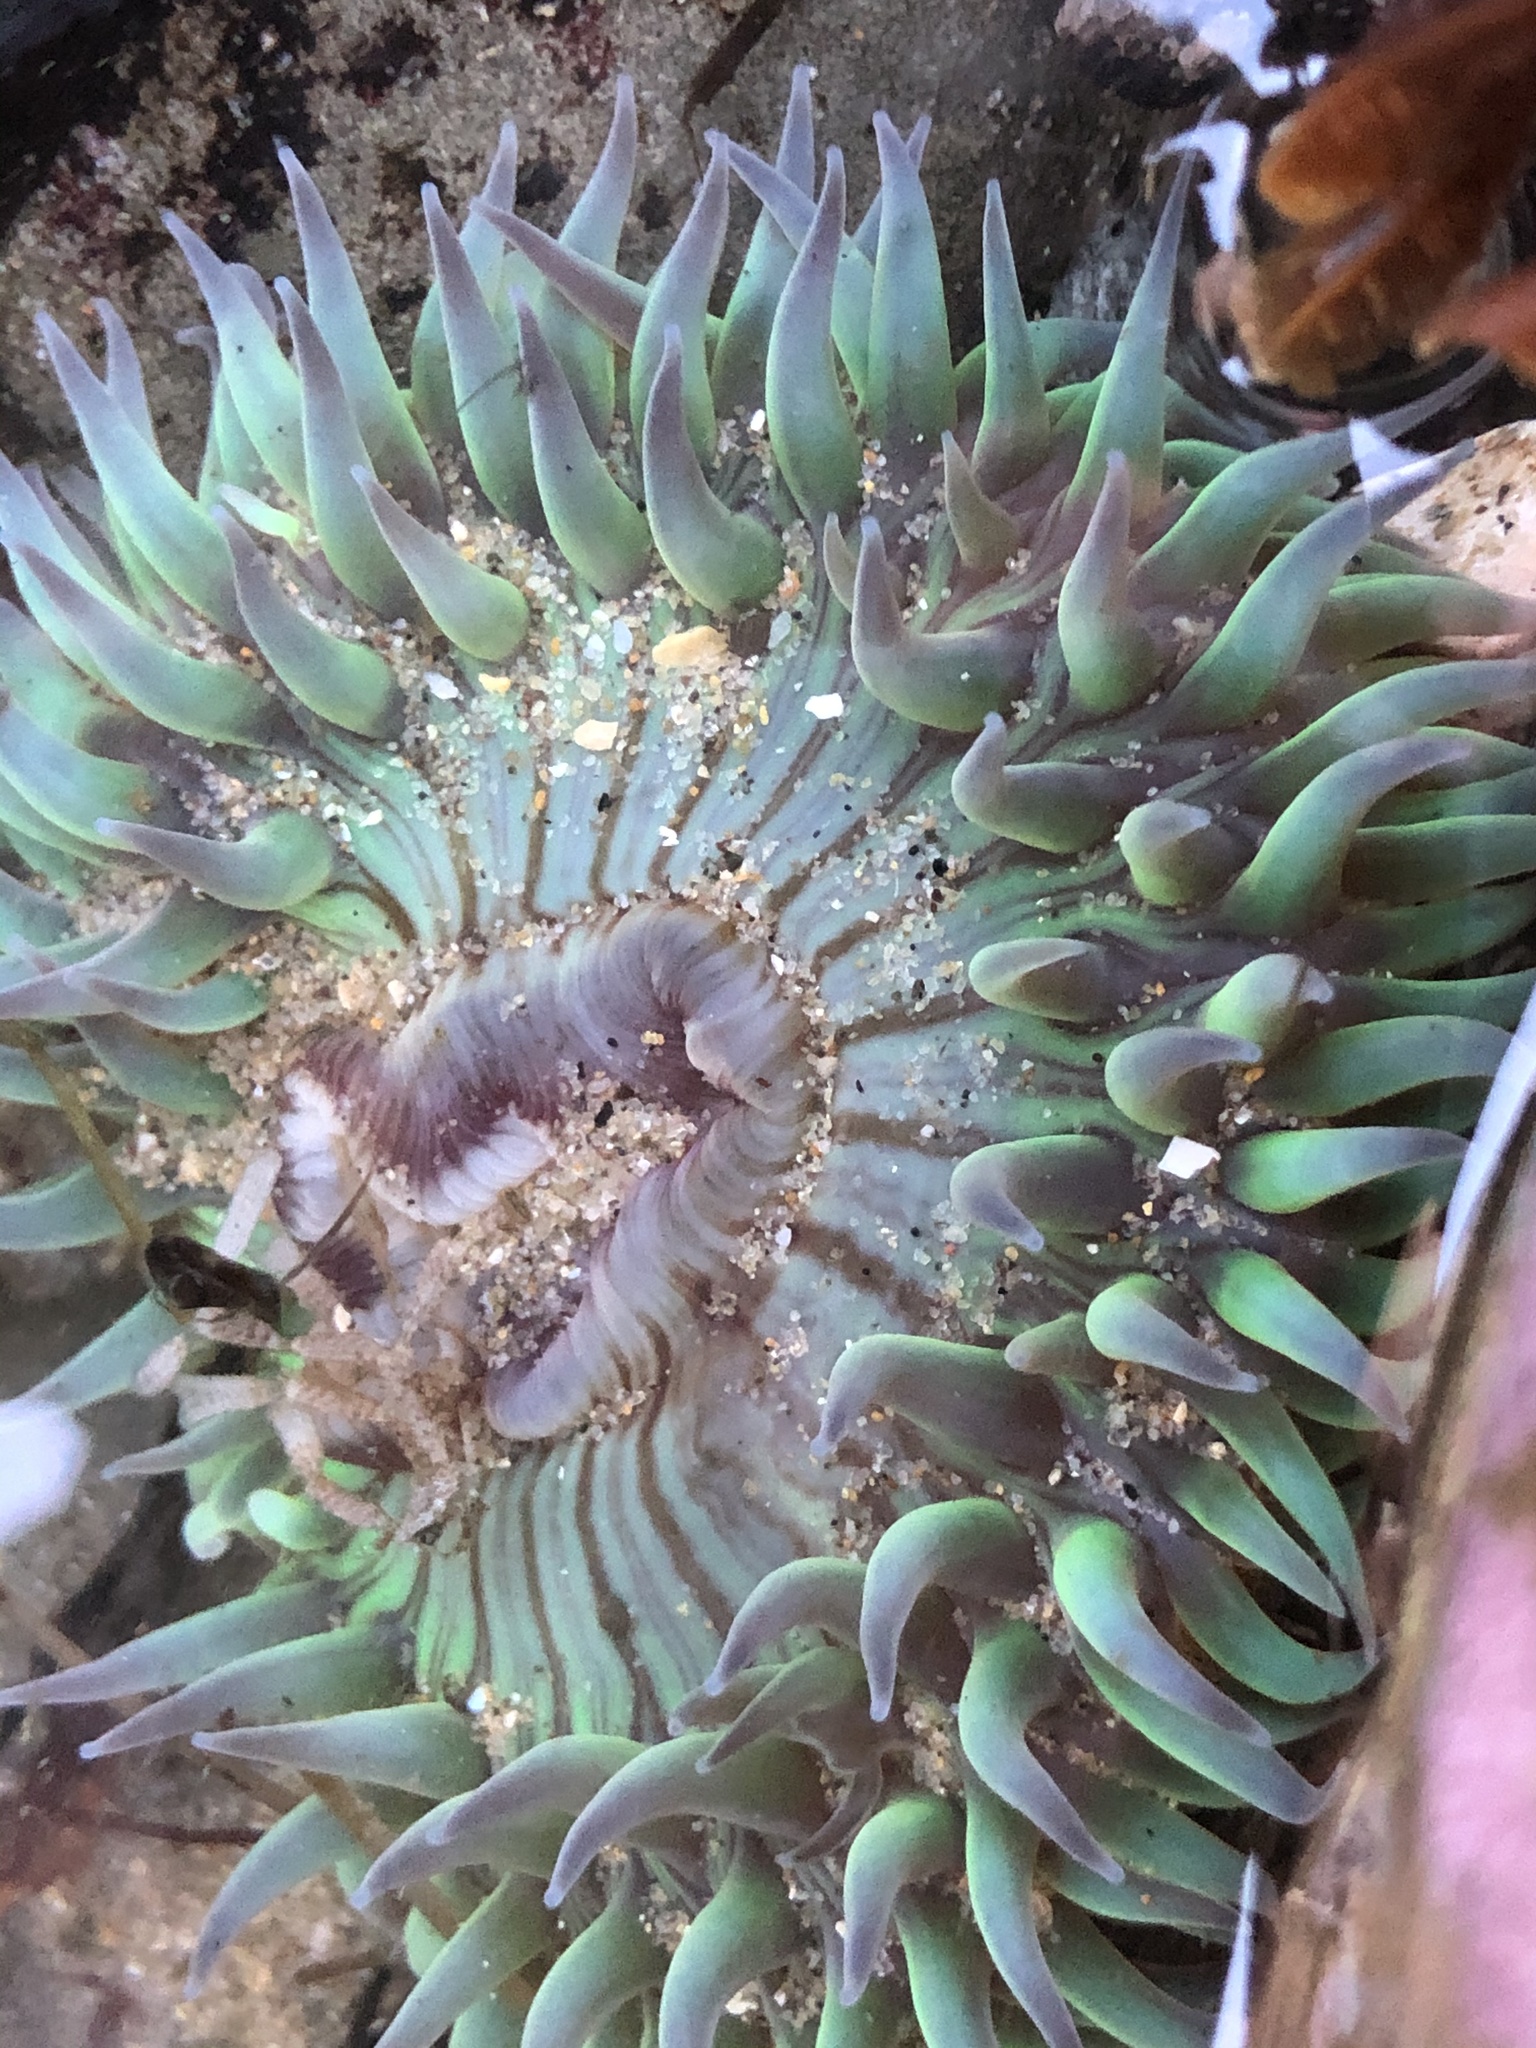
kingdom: Animalia
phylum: Cnidaria
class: Anthozoa
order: Actiniaria
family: Actiniidae
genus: Anthopleura
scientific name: Anthopleura sola
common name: Sun anemone
